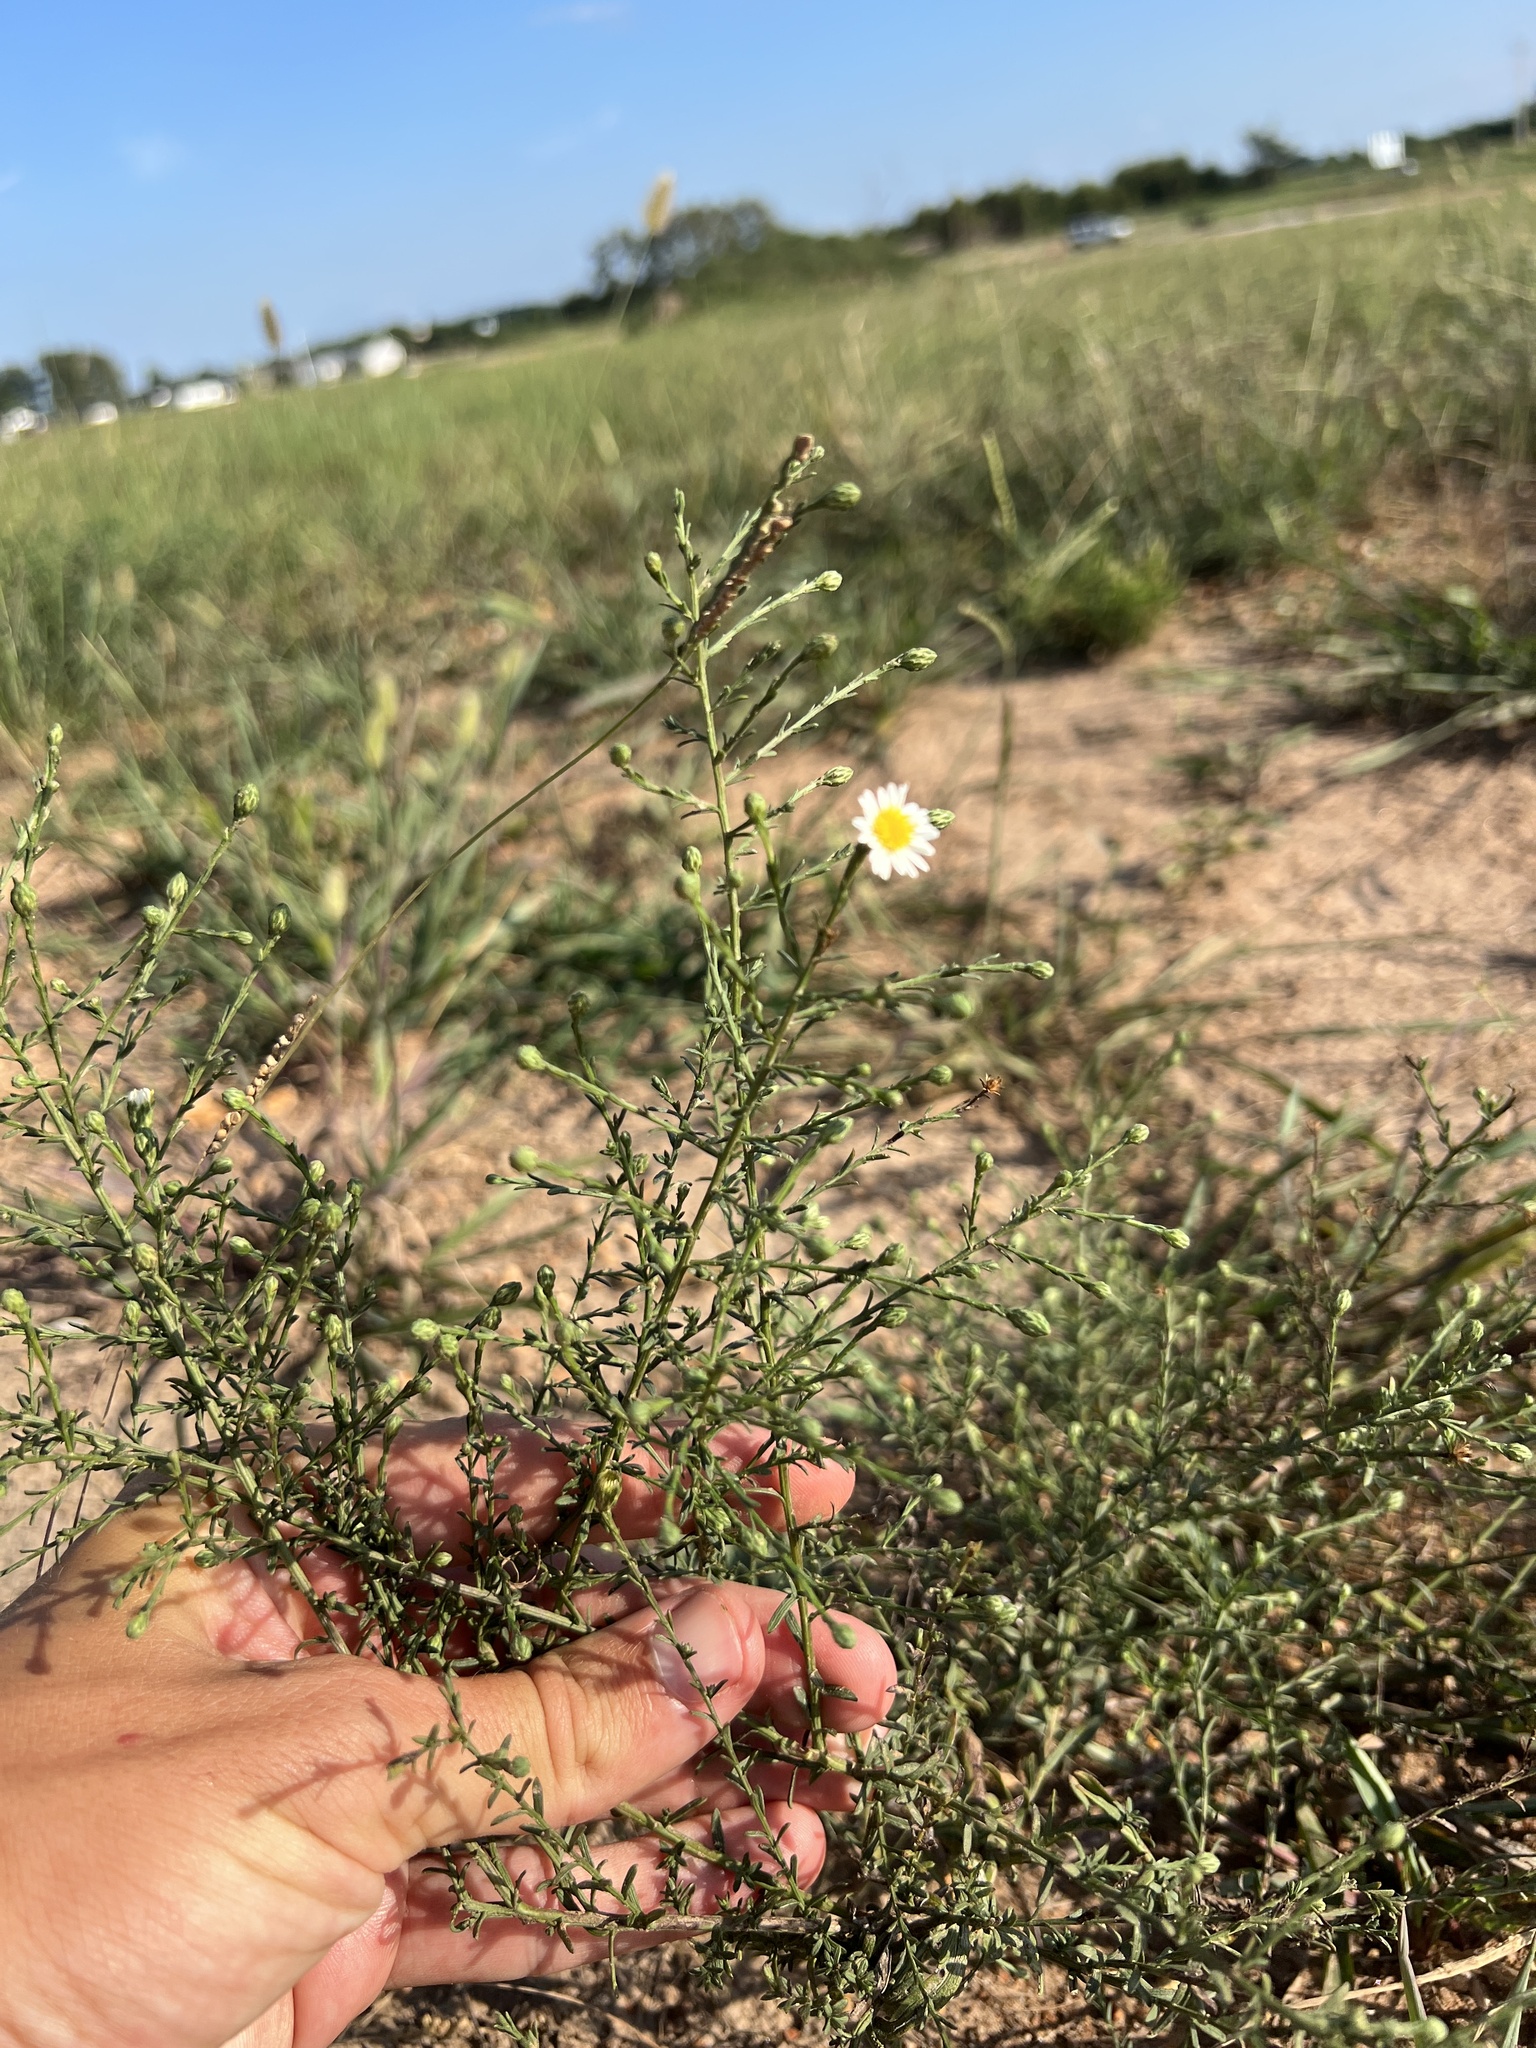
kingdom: Plantae
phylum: Tracheophyta
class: Magnoliopsida
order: Asterales
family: Asteraceae
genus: Symphyotrichum
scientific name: Symphyotrichum dumosum
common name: Bushy aster
